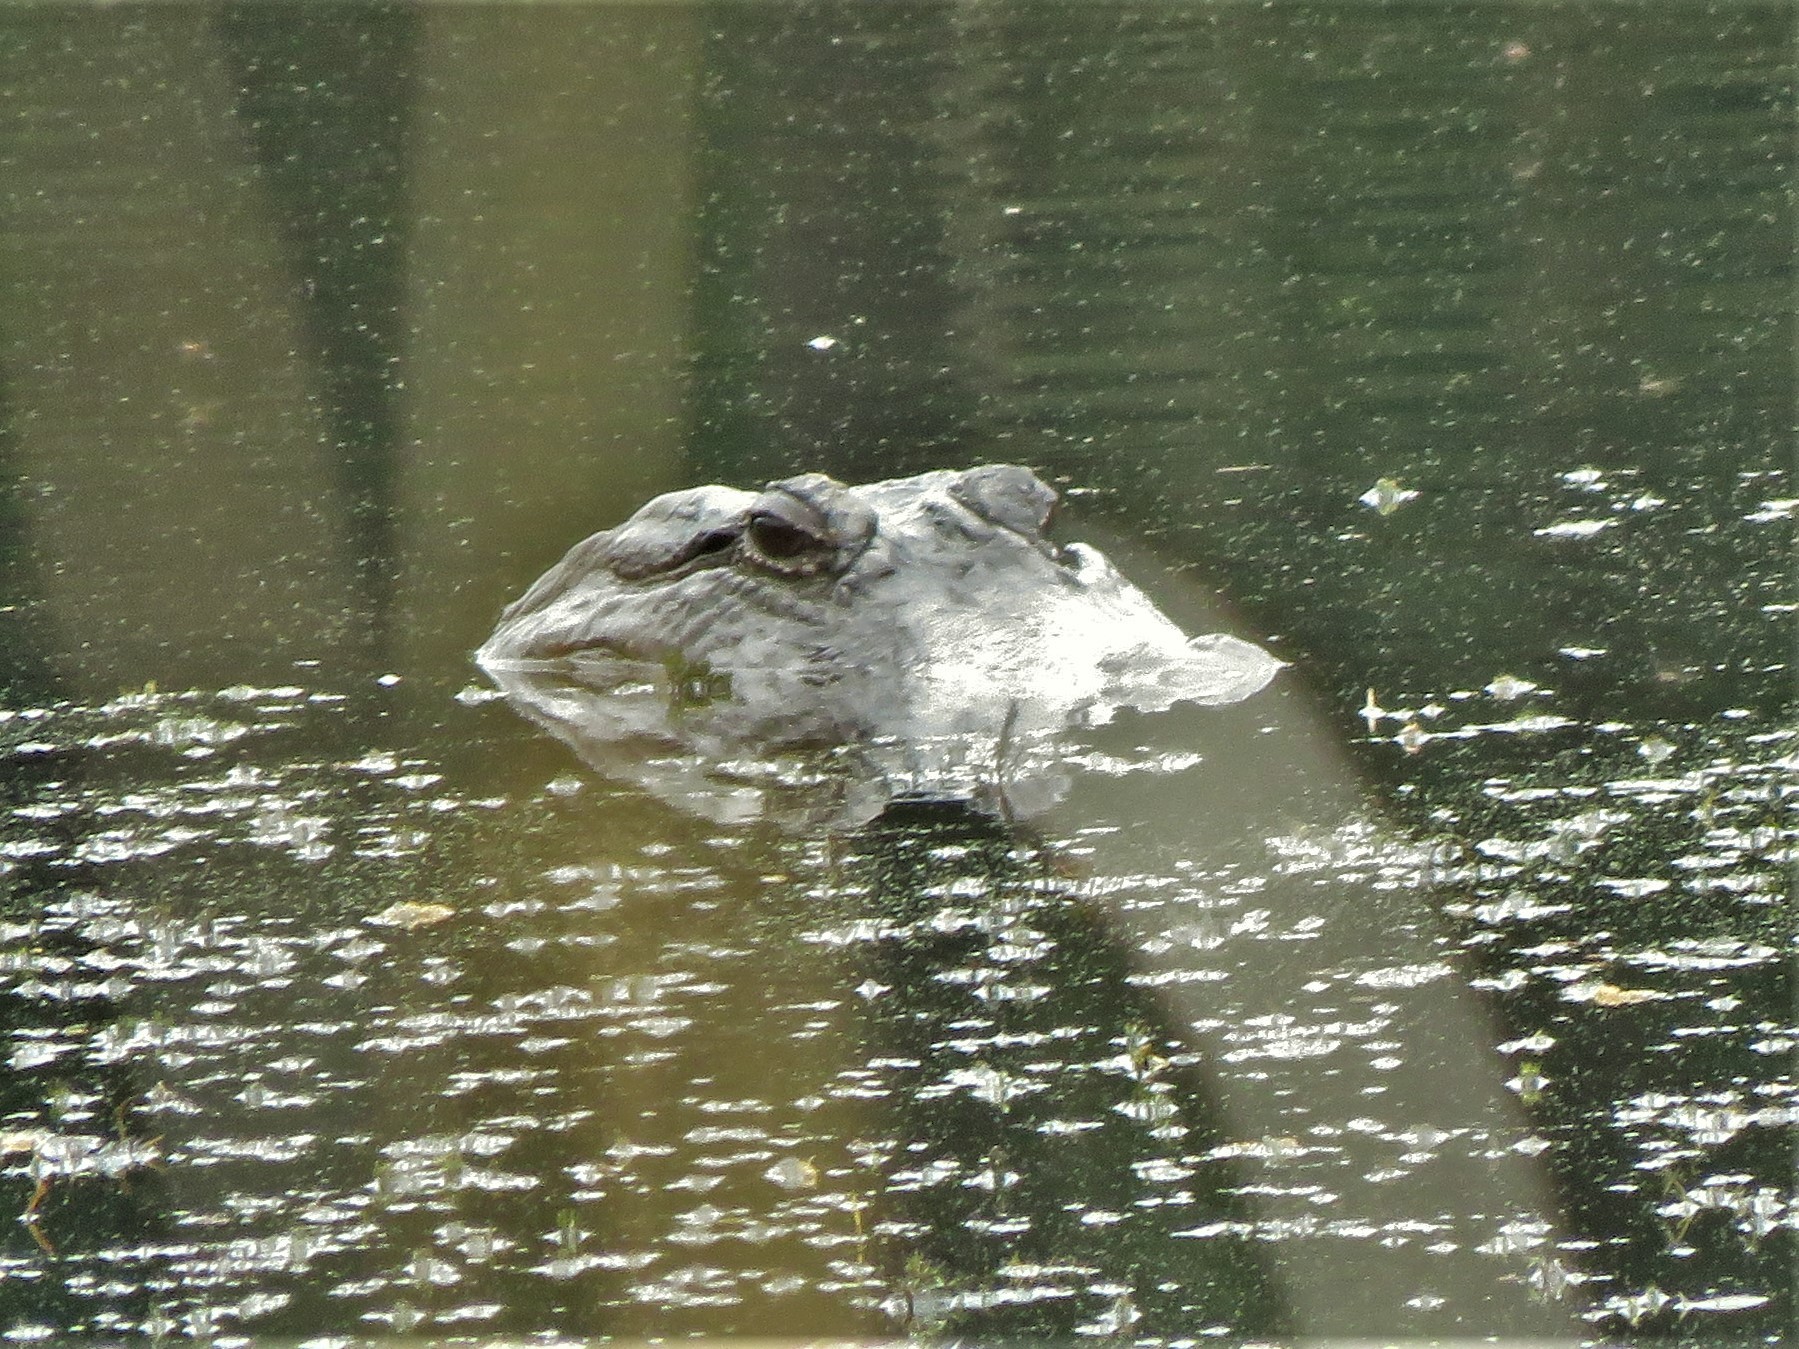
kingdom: Animalia
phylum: Chordata
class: Crocodylia
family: Alligatoridae
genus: Alligator
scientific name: Alligator mississippiensis
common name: American alligator
